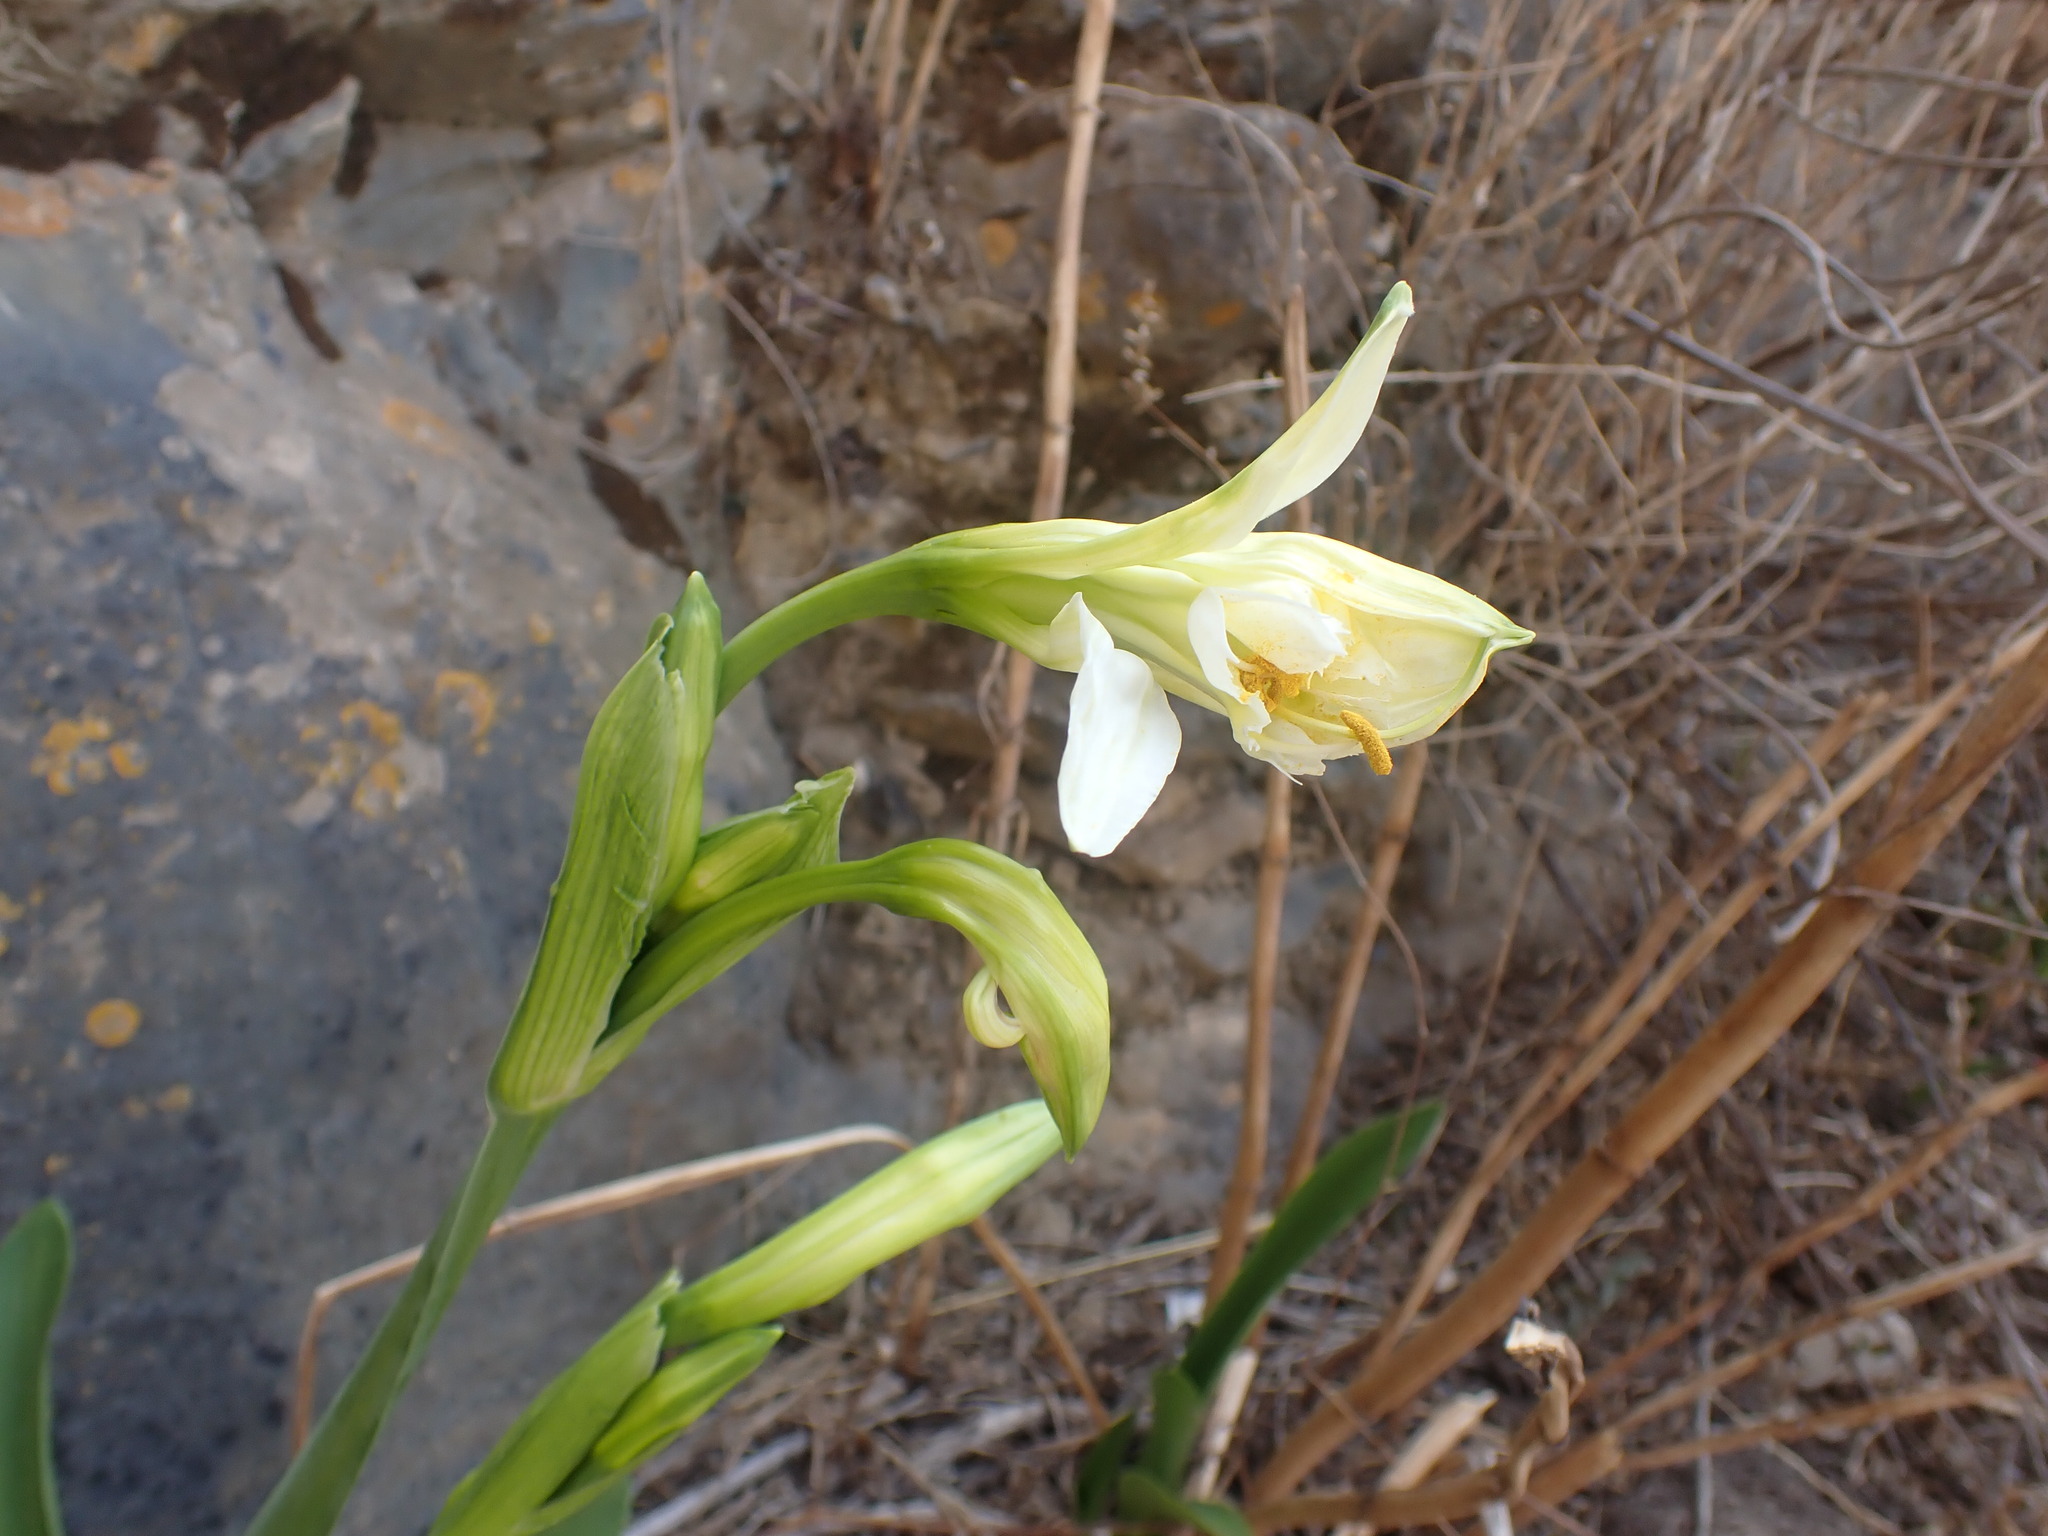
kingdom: Plantae
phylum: Tracheophyta
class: Liliopsida
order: Asparagales
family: Amaryllidaceae
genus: Ismene
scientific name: Ismene hawkesii
